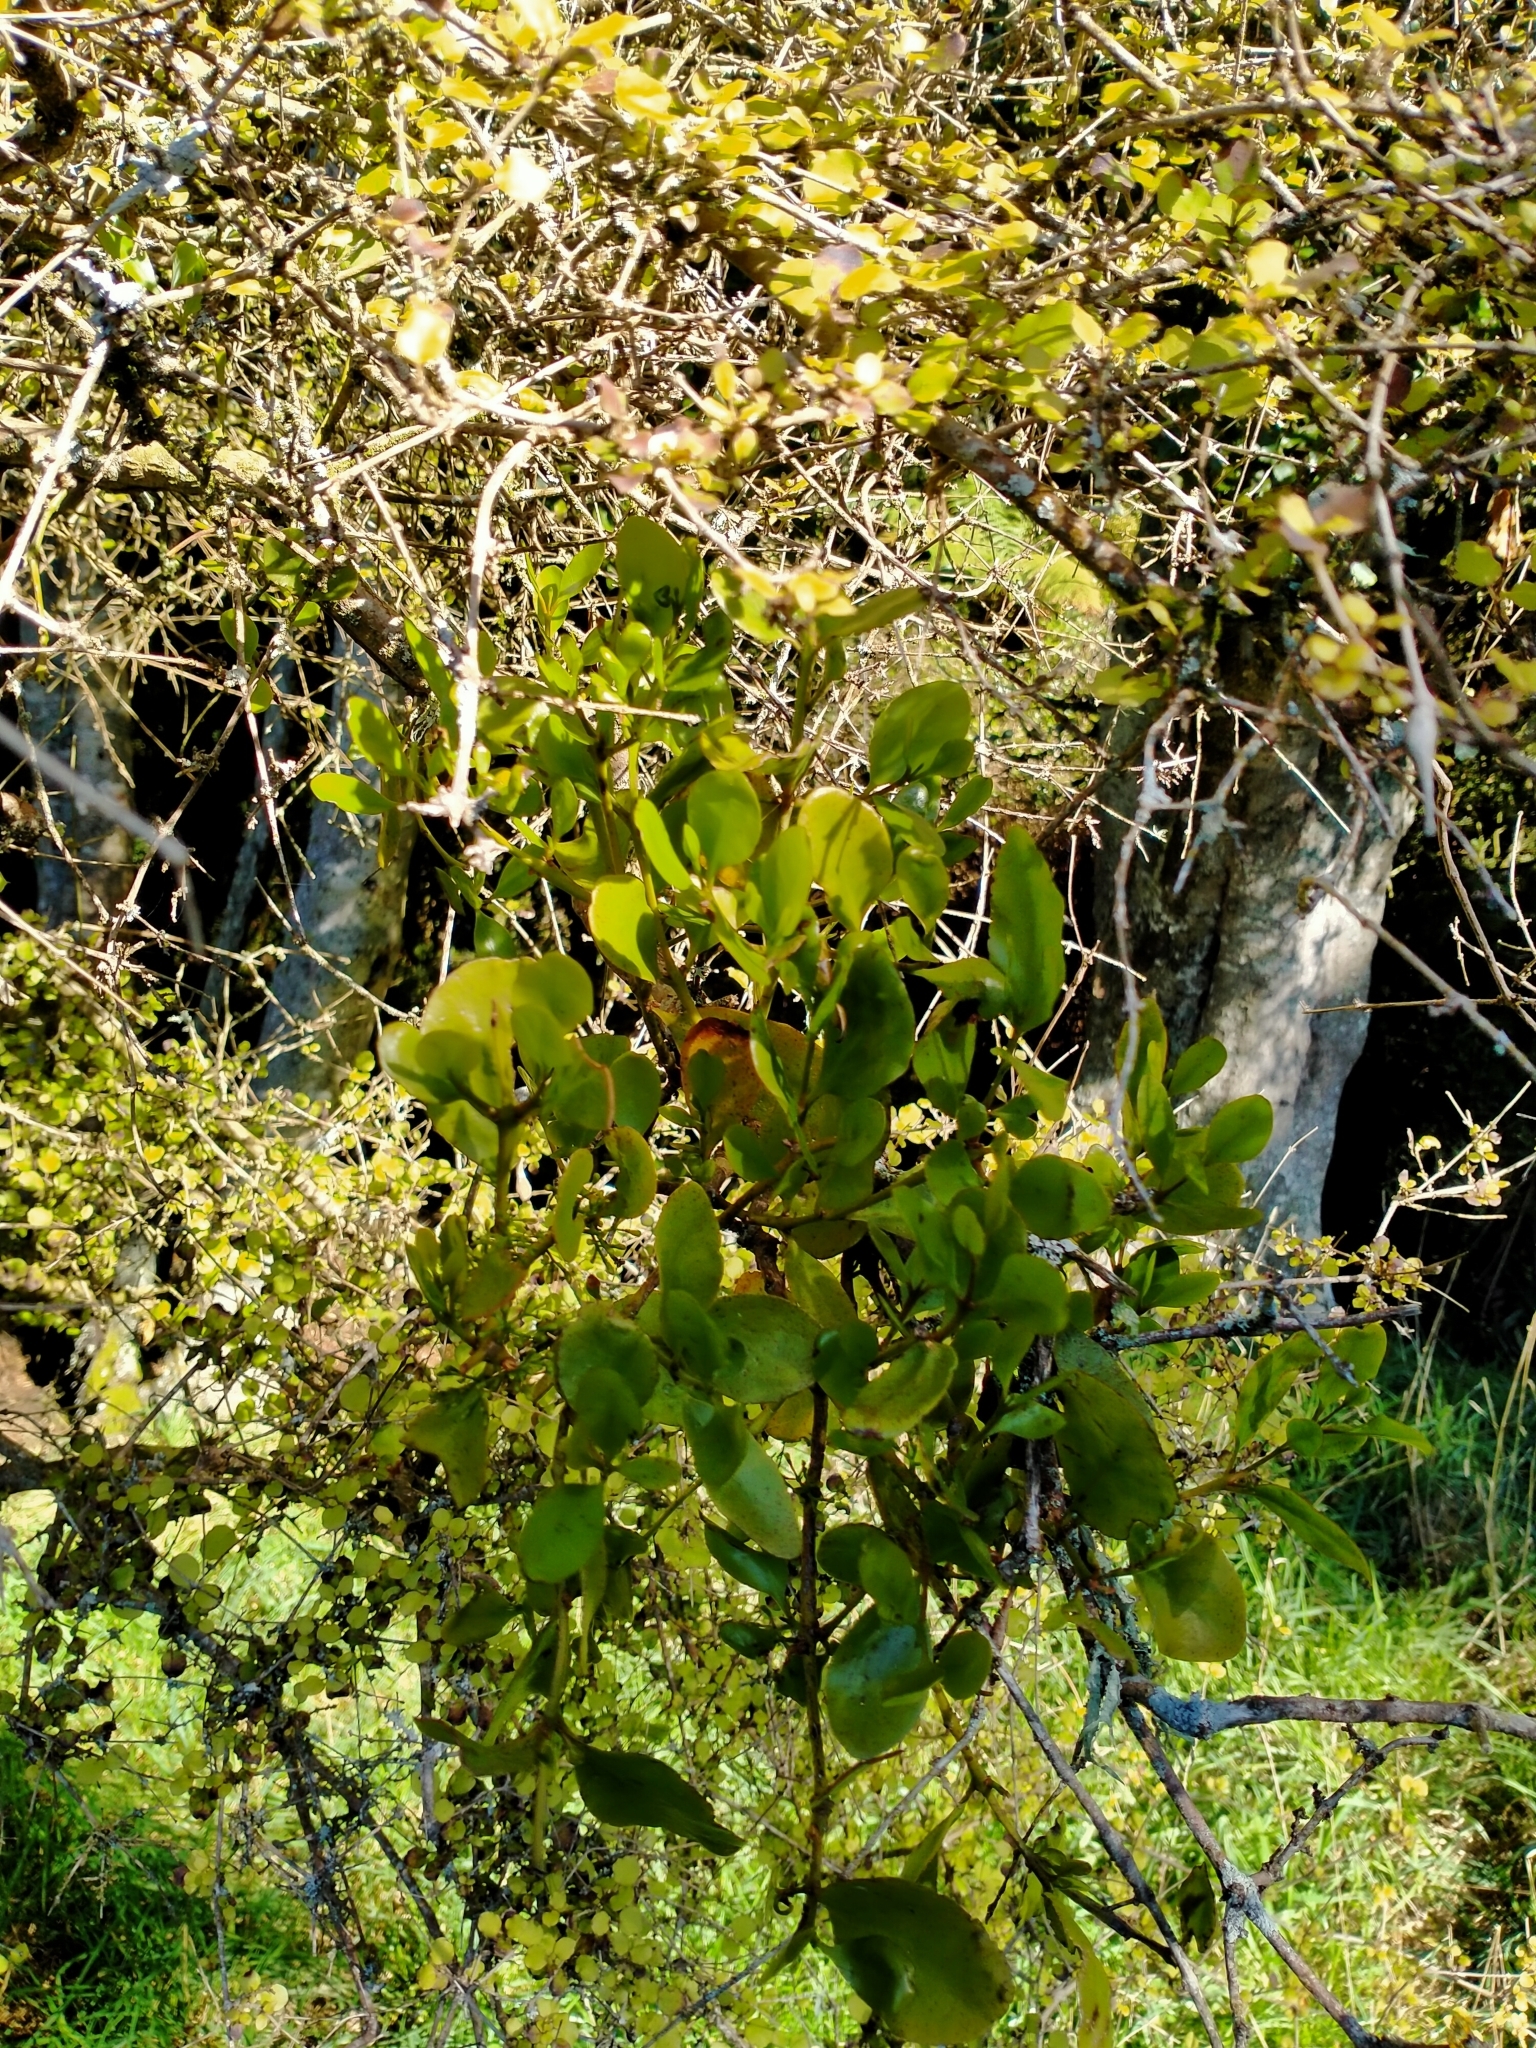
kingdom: Plantae
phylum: Tracheophyta
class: Magnoliopsida
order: Santalales
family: Loranthaceae
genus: Ileostylus
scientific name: Ileostylus micranthus
